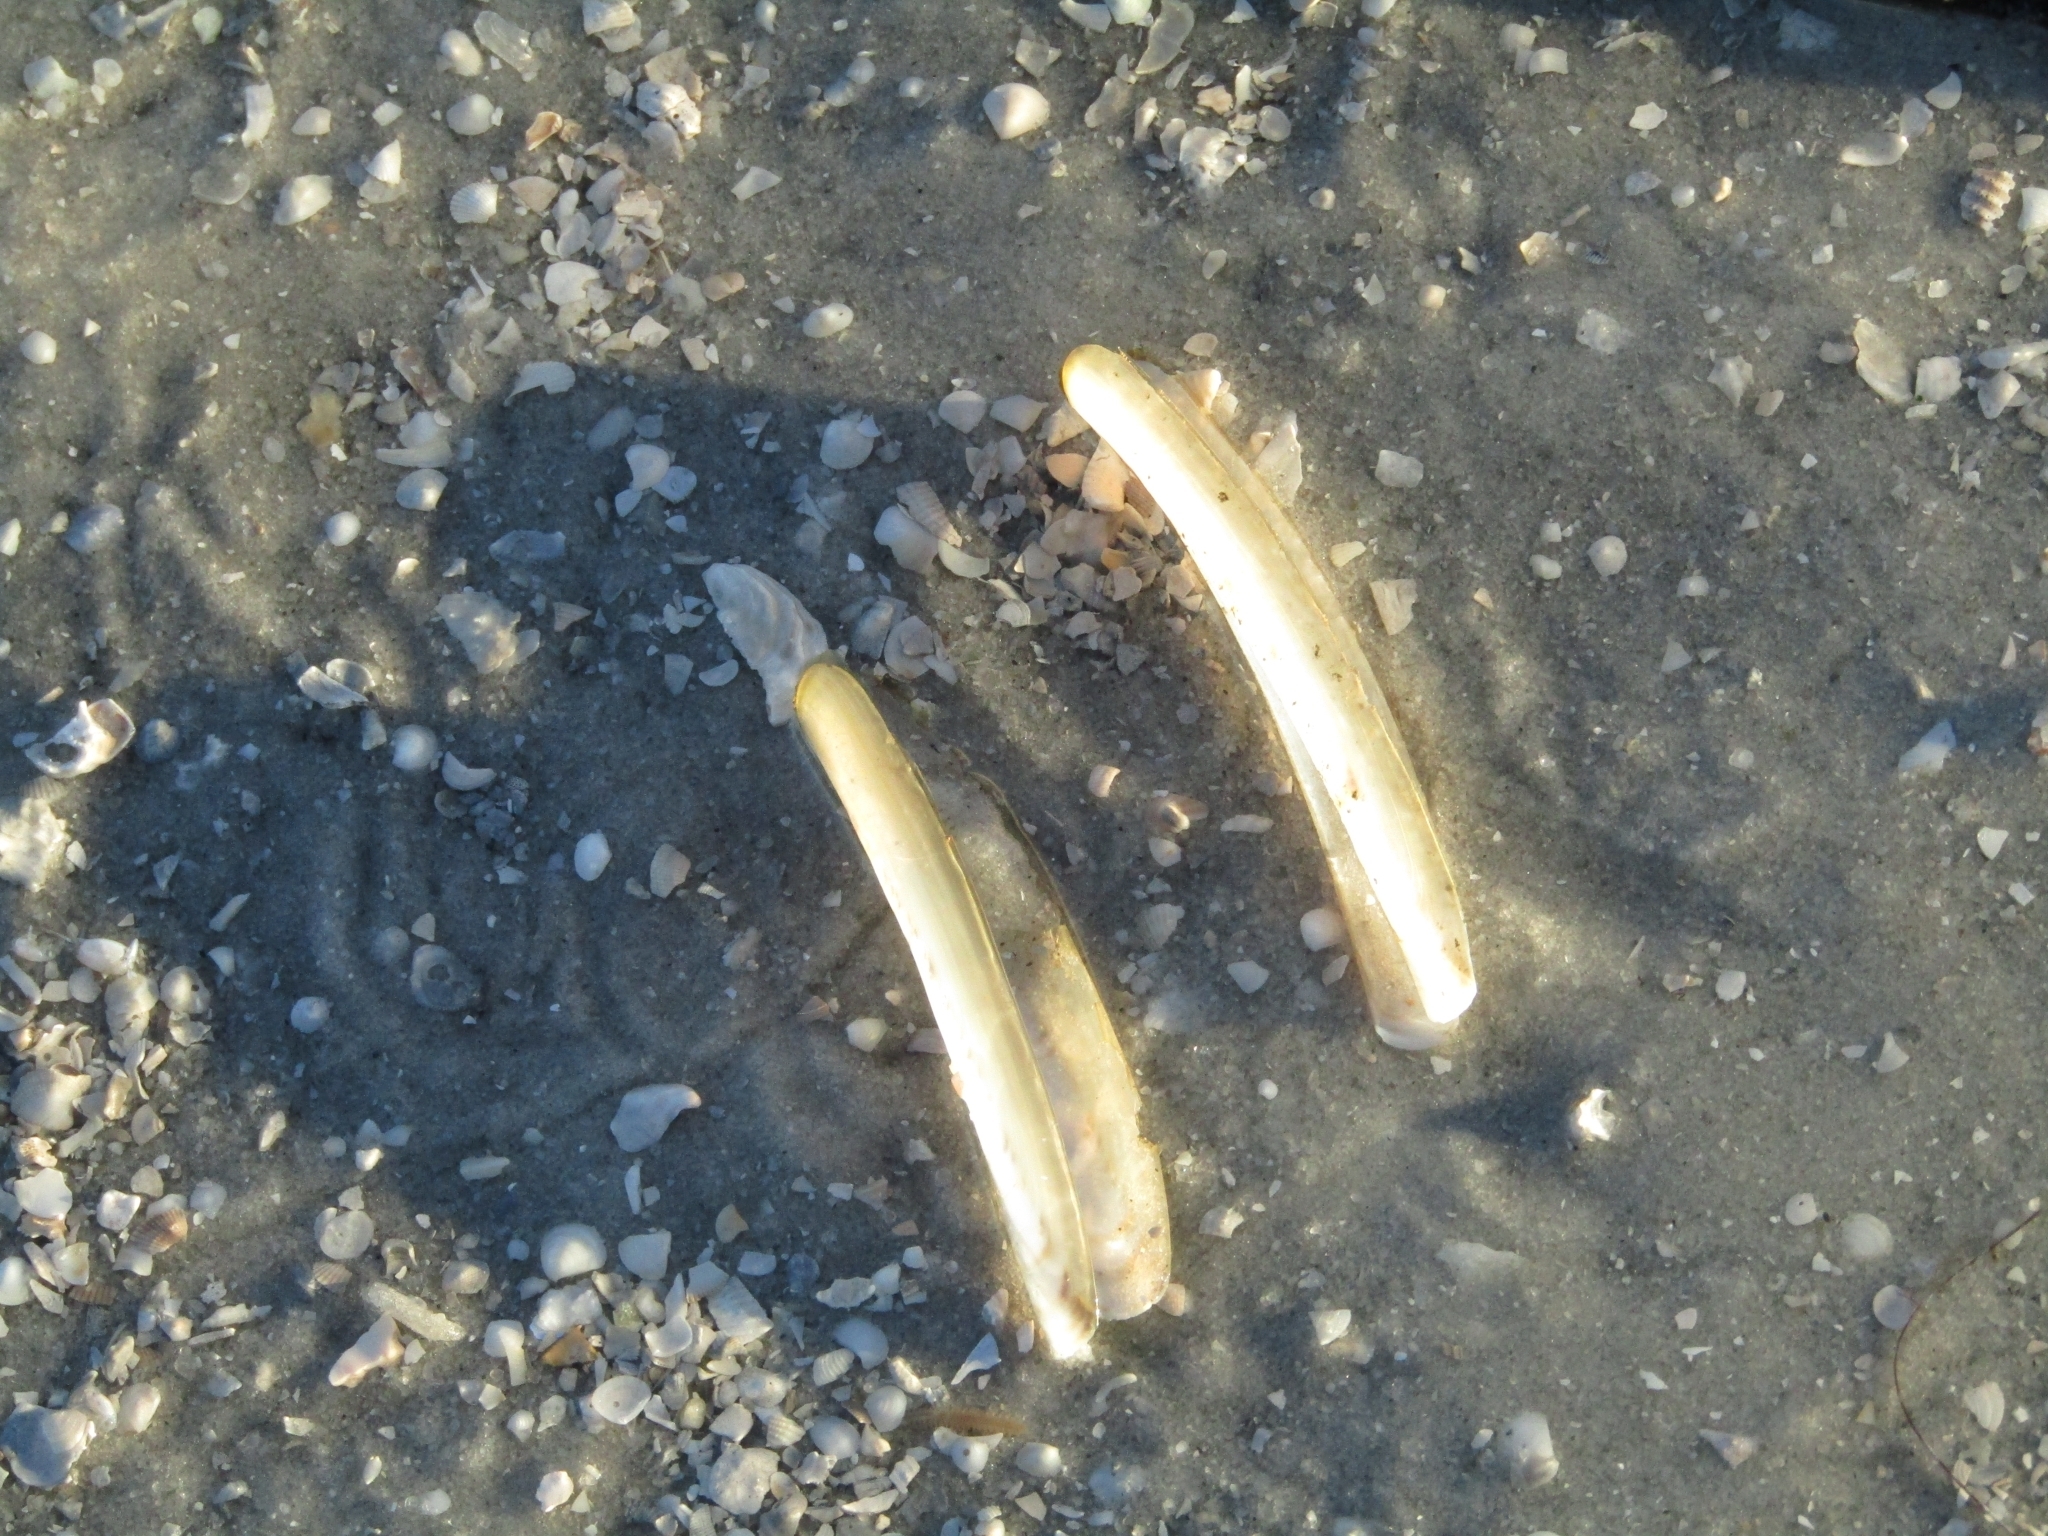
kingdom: Animalia
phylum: Mollusca
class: Bivalvia
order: Adapedonta
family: Pharidae
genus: Ensis
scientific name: Ensis megistus
